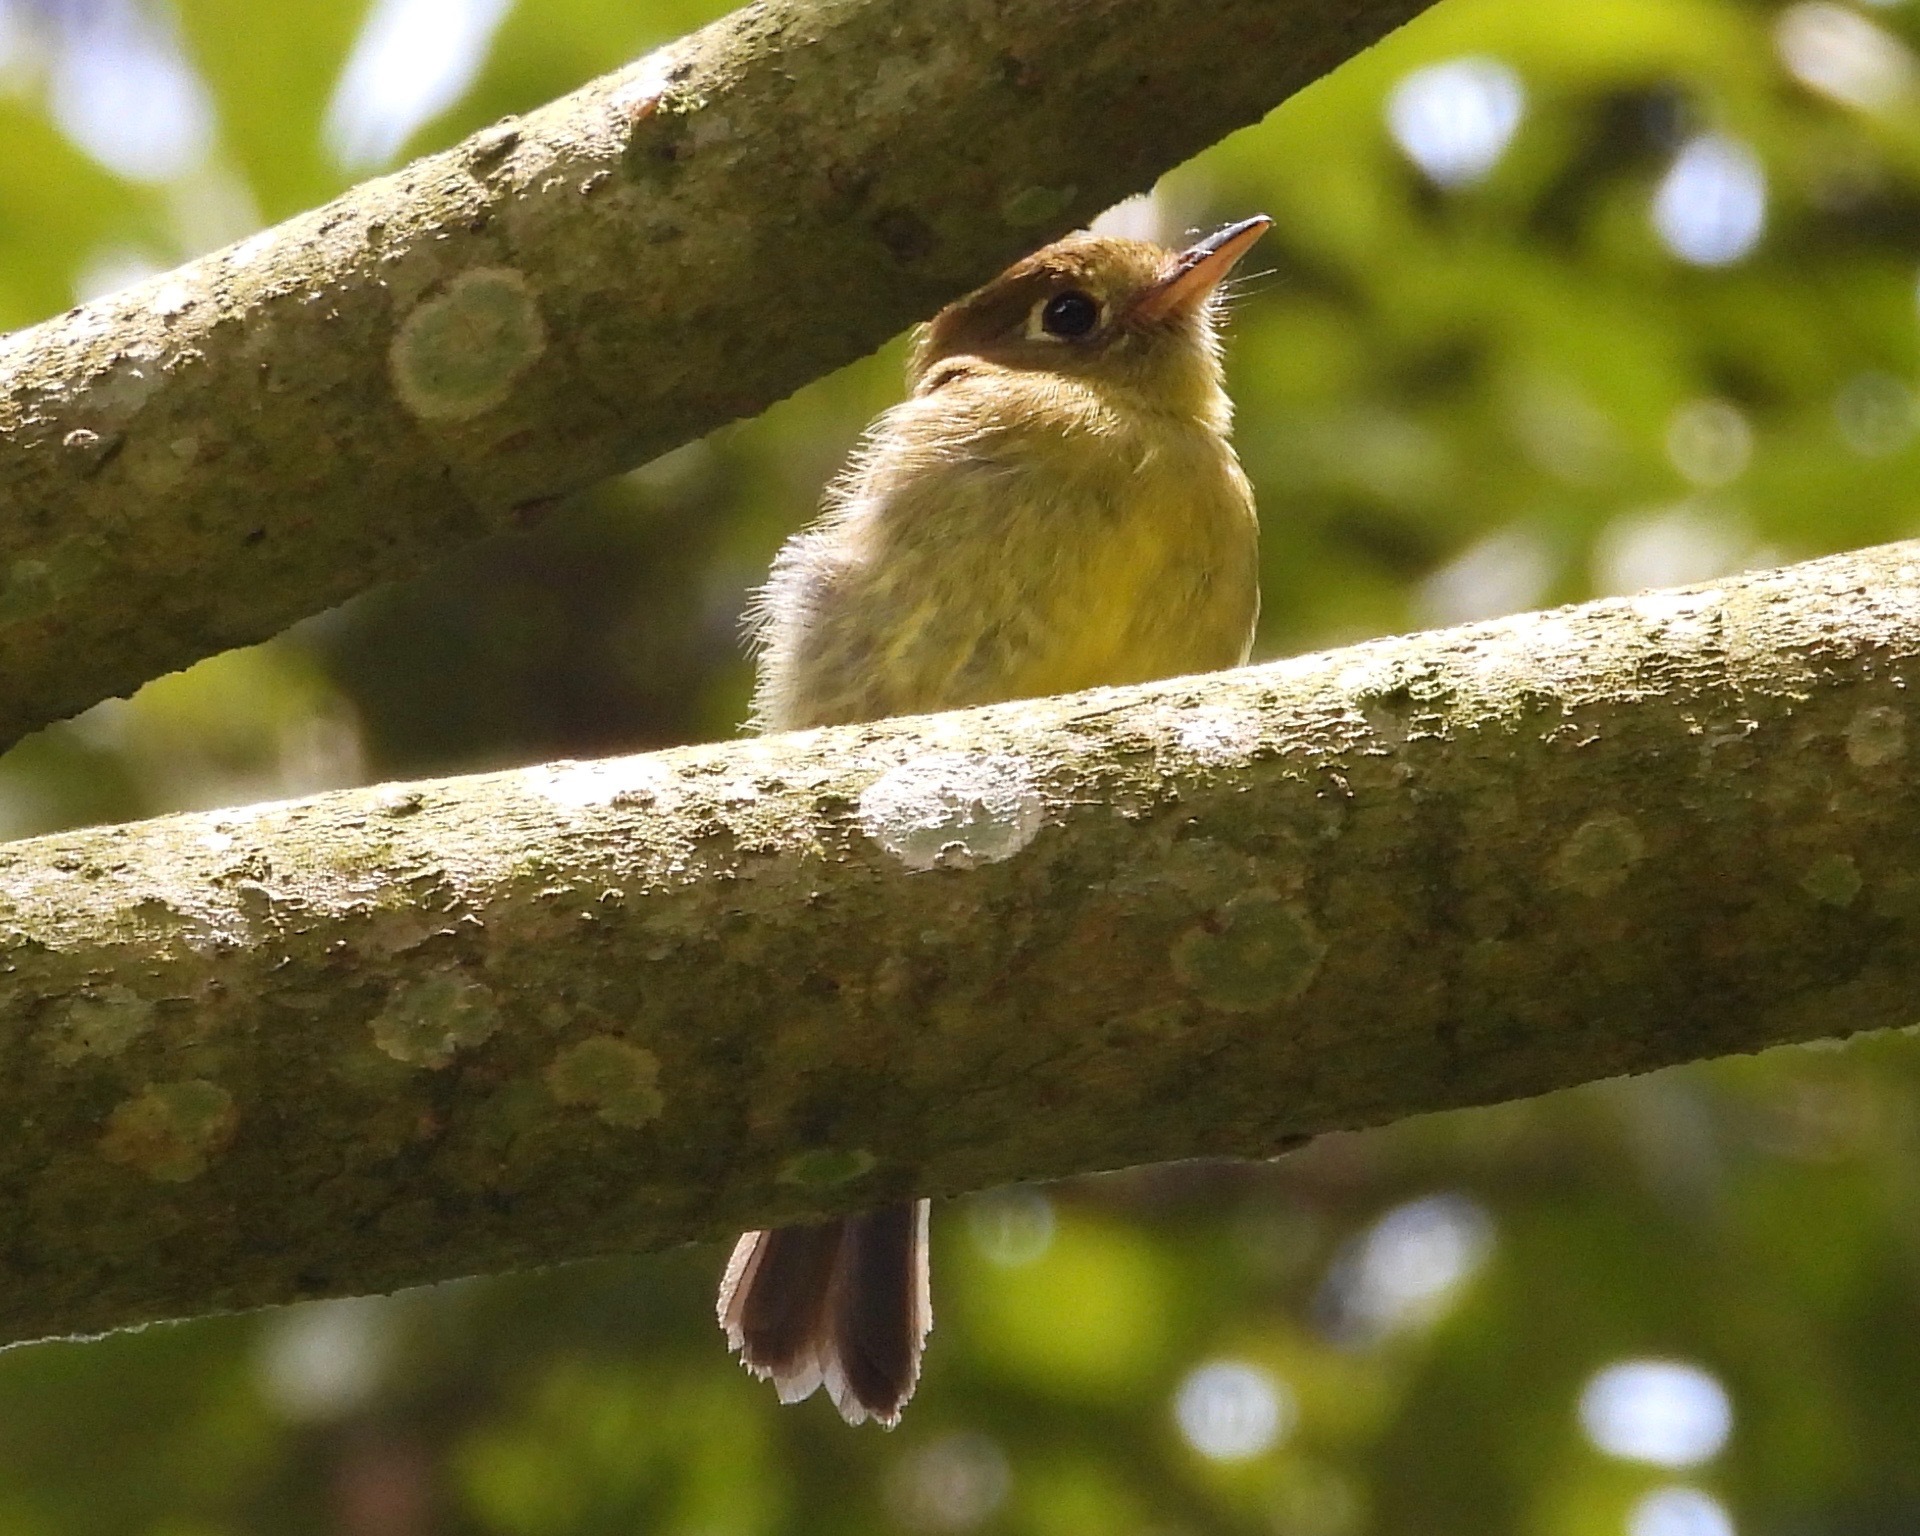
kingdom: Animalia
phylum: Chordata
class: Aves
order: Passeriformes
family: Tyrannidae
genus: Empidonax
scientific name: Empidonax flavescens
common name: Yellowish flycatcher
